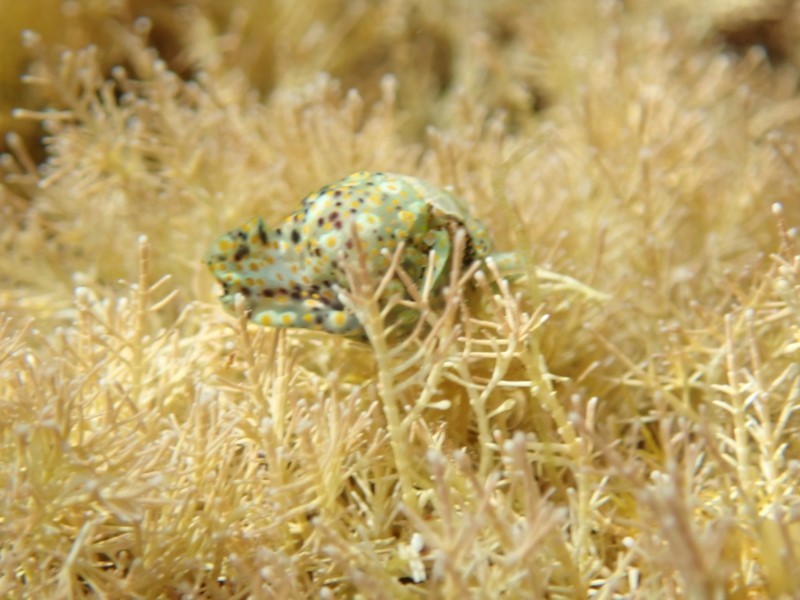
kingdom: Animalia
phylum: Mollusca
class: Gastropoda
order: Cephalaspidea
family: Haminoeidae
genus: Lamprohaminoea
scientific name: Lamprohaminoea ovalis
